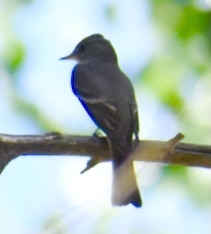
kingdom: Animalia
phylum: Chordata
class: Aves
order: Passeriformes
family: Tyrannidae
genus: Contopus
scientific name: Contopus sordidulus
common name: Western wood-pewee
